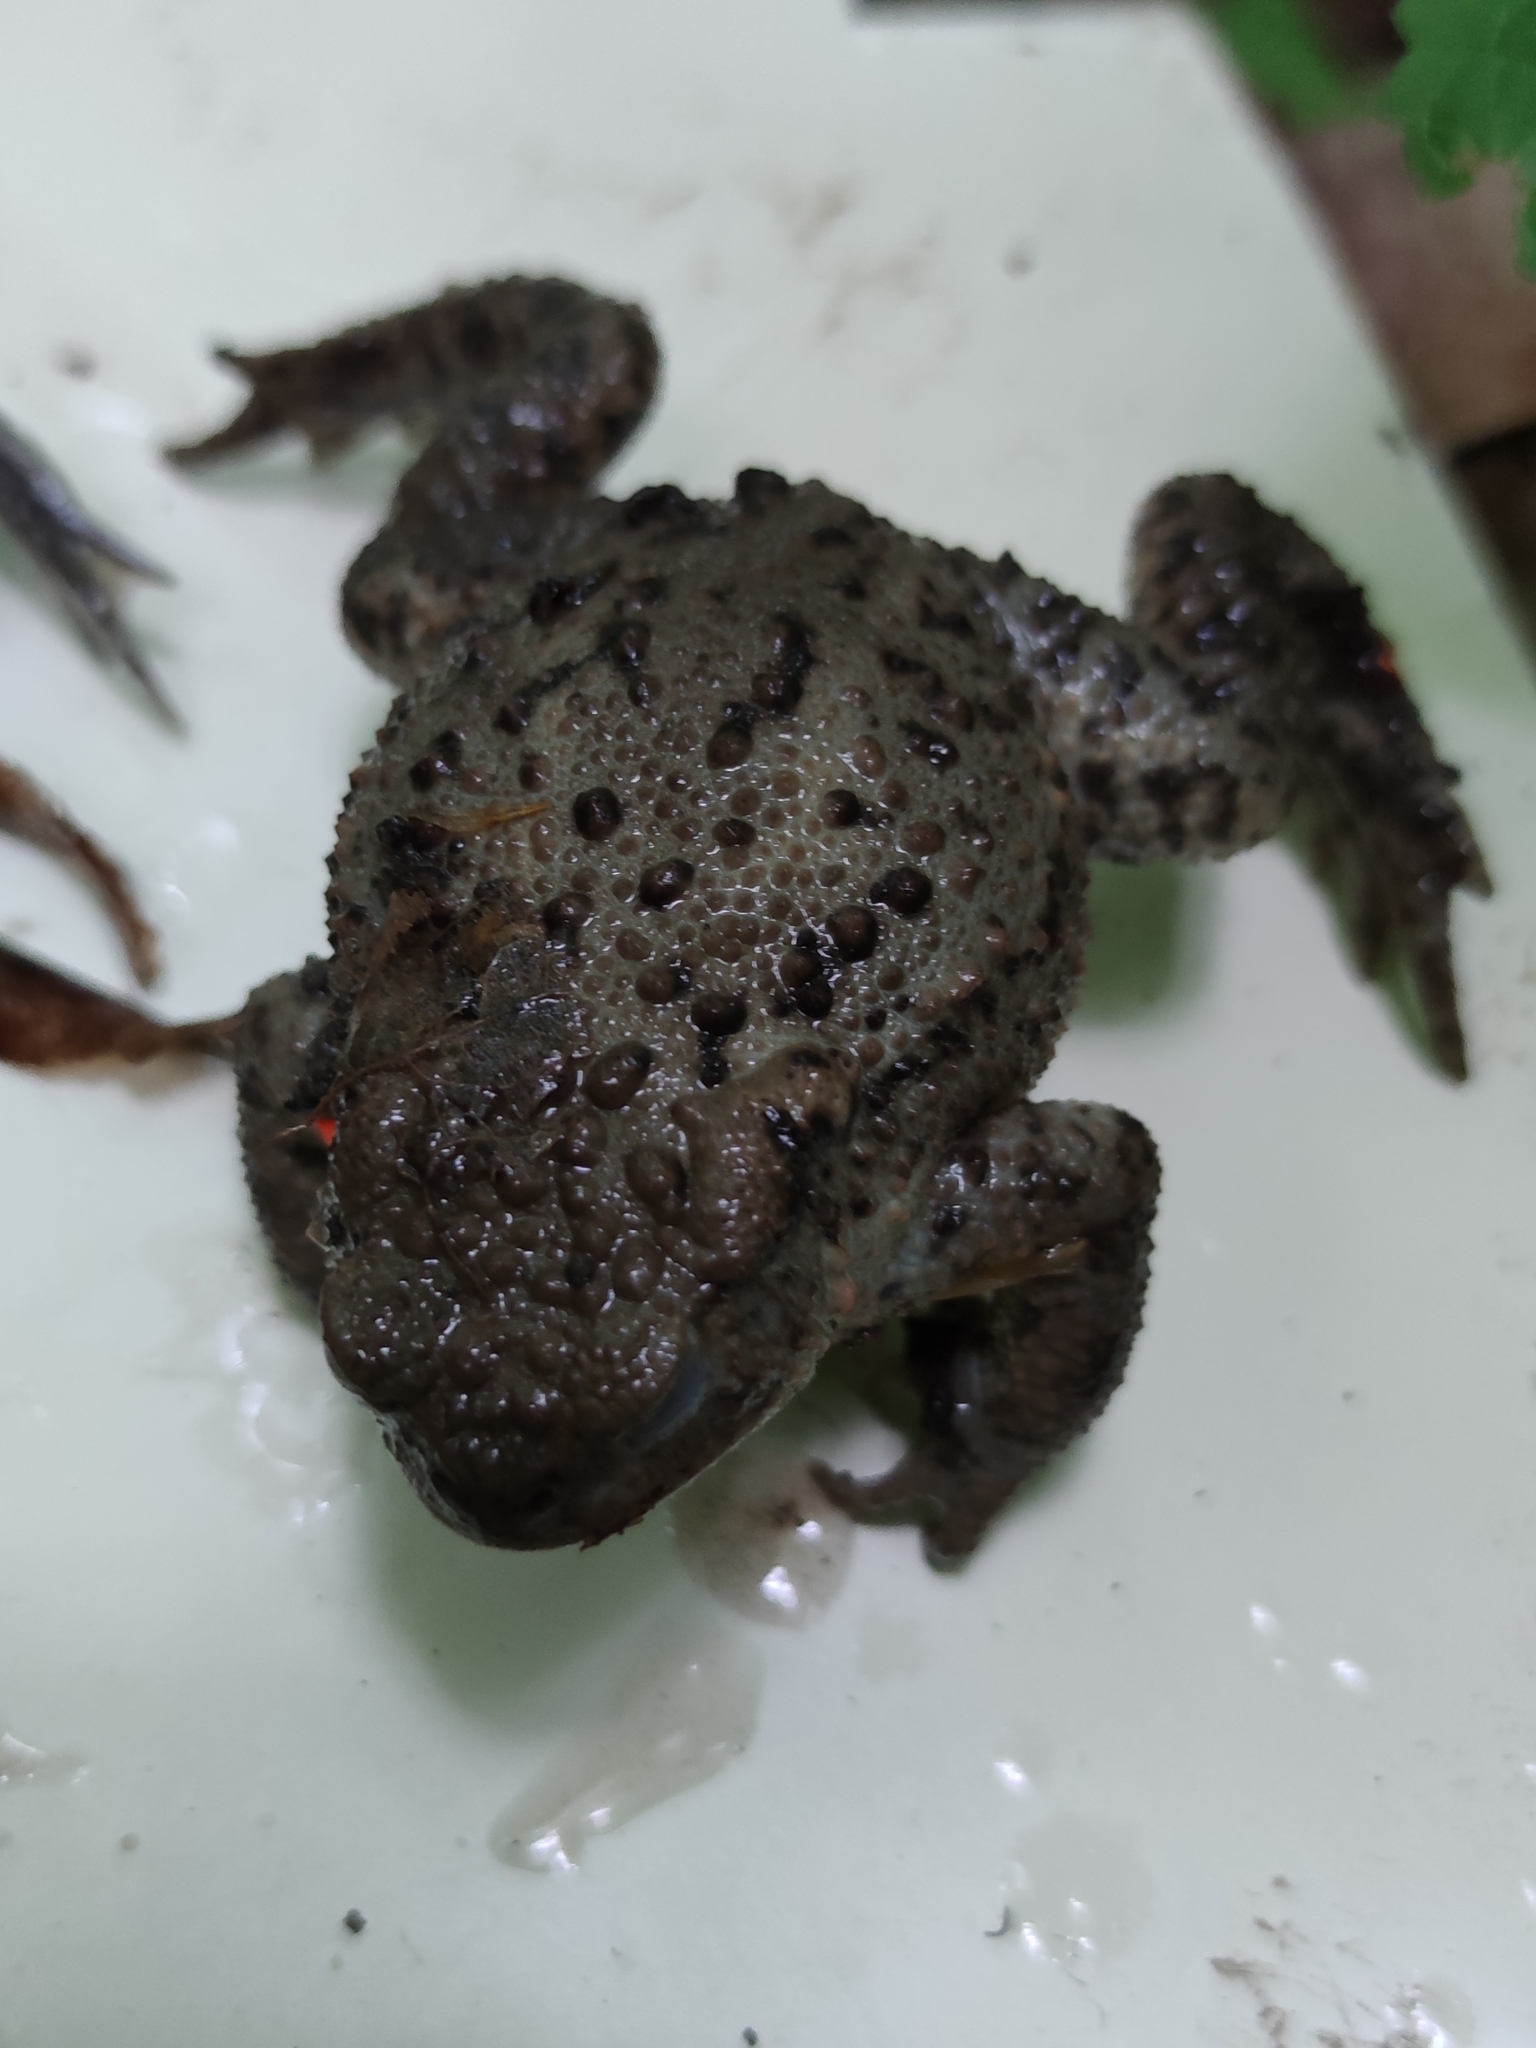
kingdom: Animalia
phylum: Chordata
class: Amphibia
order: Anura
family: Bufonidae
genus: Bufo
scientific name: Bufo bufo
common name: Common toad
